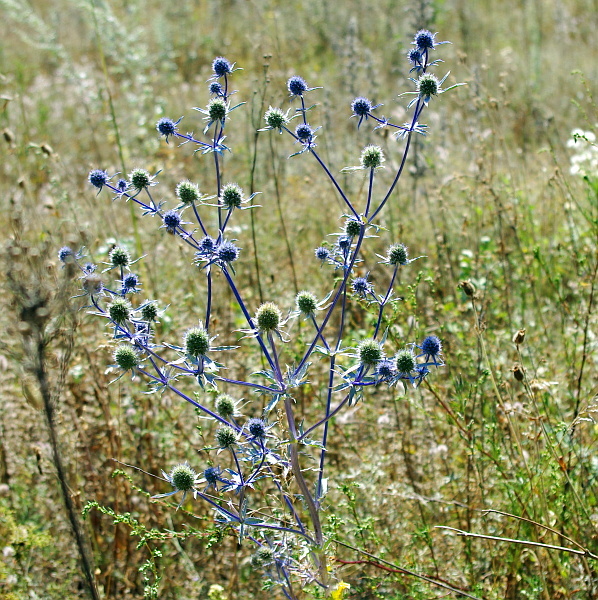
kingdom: Plantae
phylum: Tracheophyta
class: Magnoliopsida
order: Apiales
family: Apiaceae
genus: Eryngium
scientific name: Eryngium planum
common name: Blue eryngo
